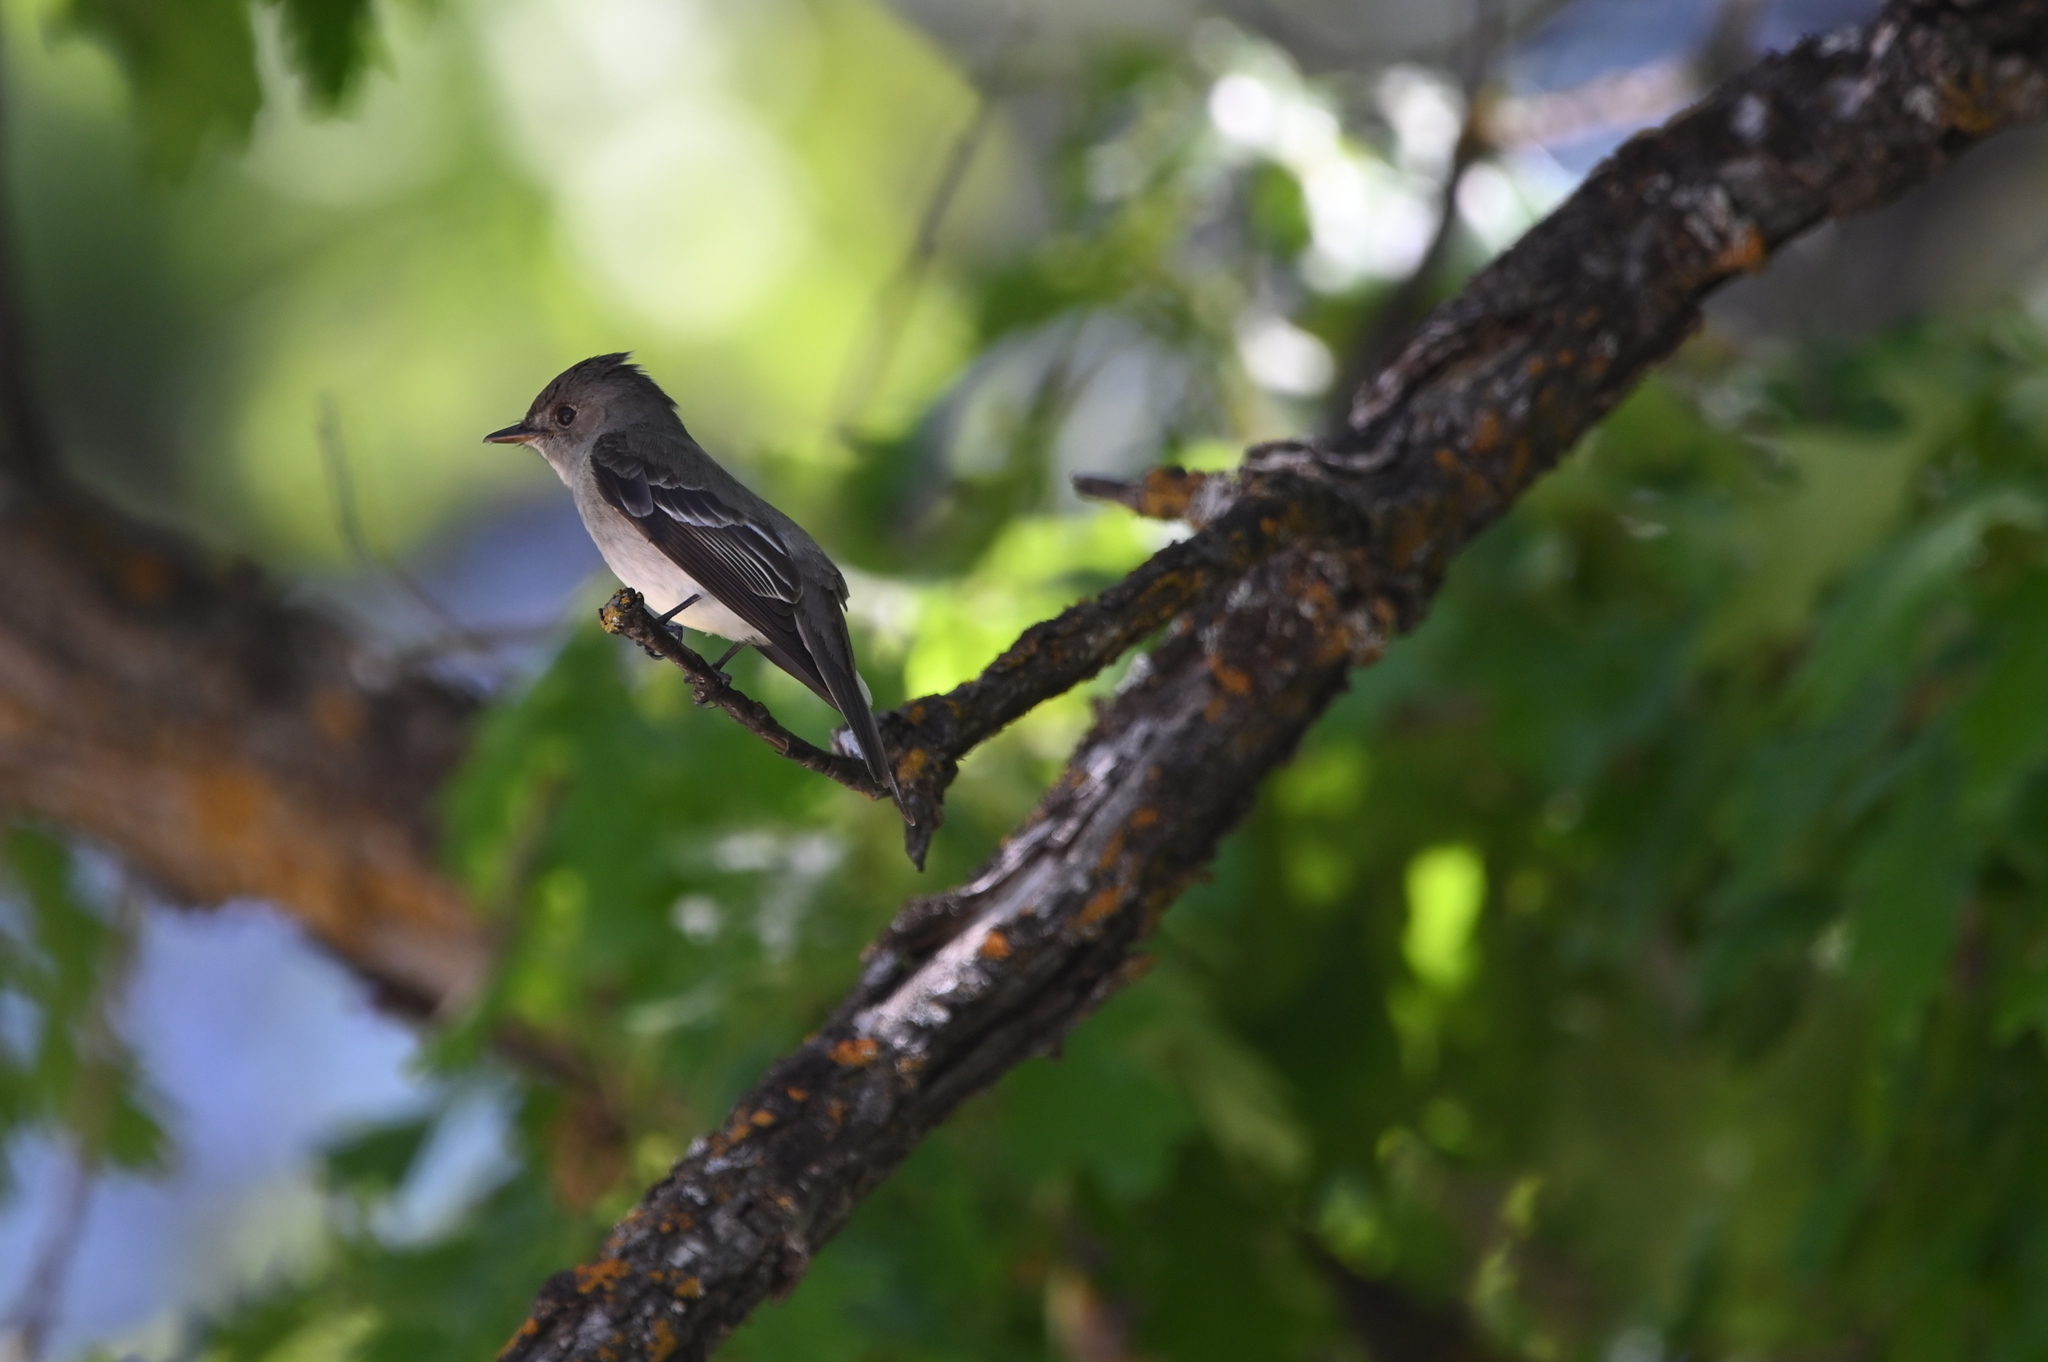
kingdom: Animalia
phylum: Chordata
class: Aves
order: Passeriformes
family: Tyrannidae
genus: Contopus
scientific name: Contopus sordidulus
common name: Western wood-pewee
